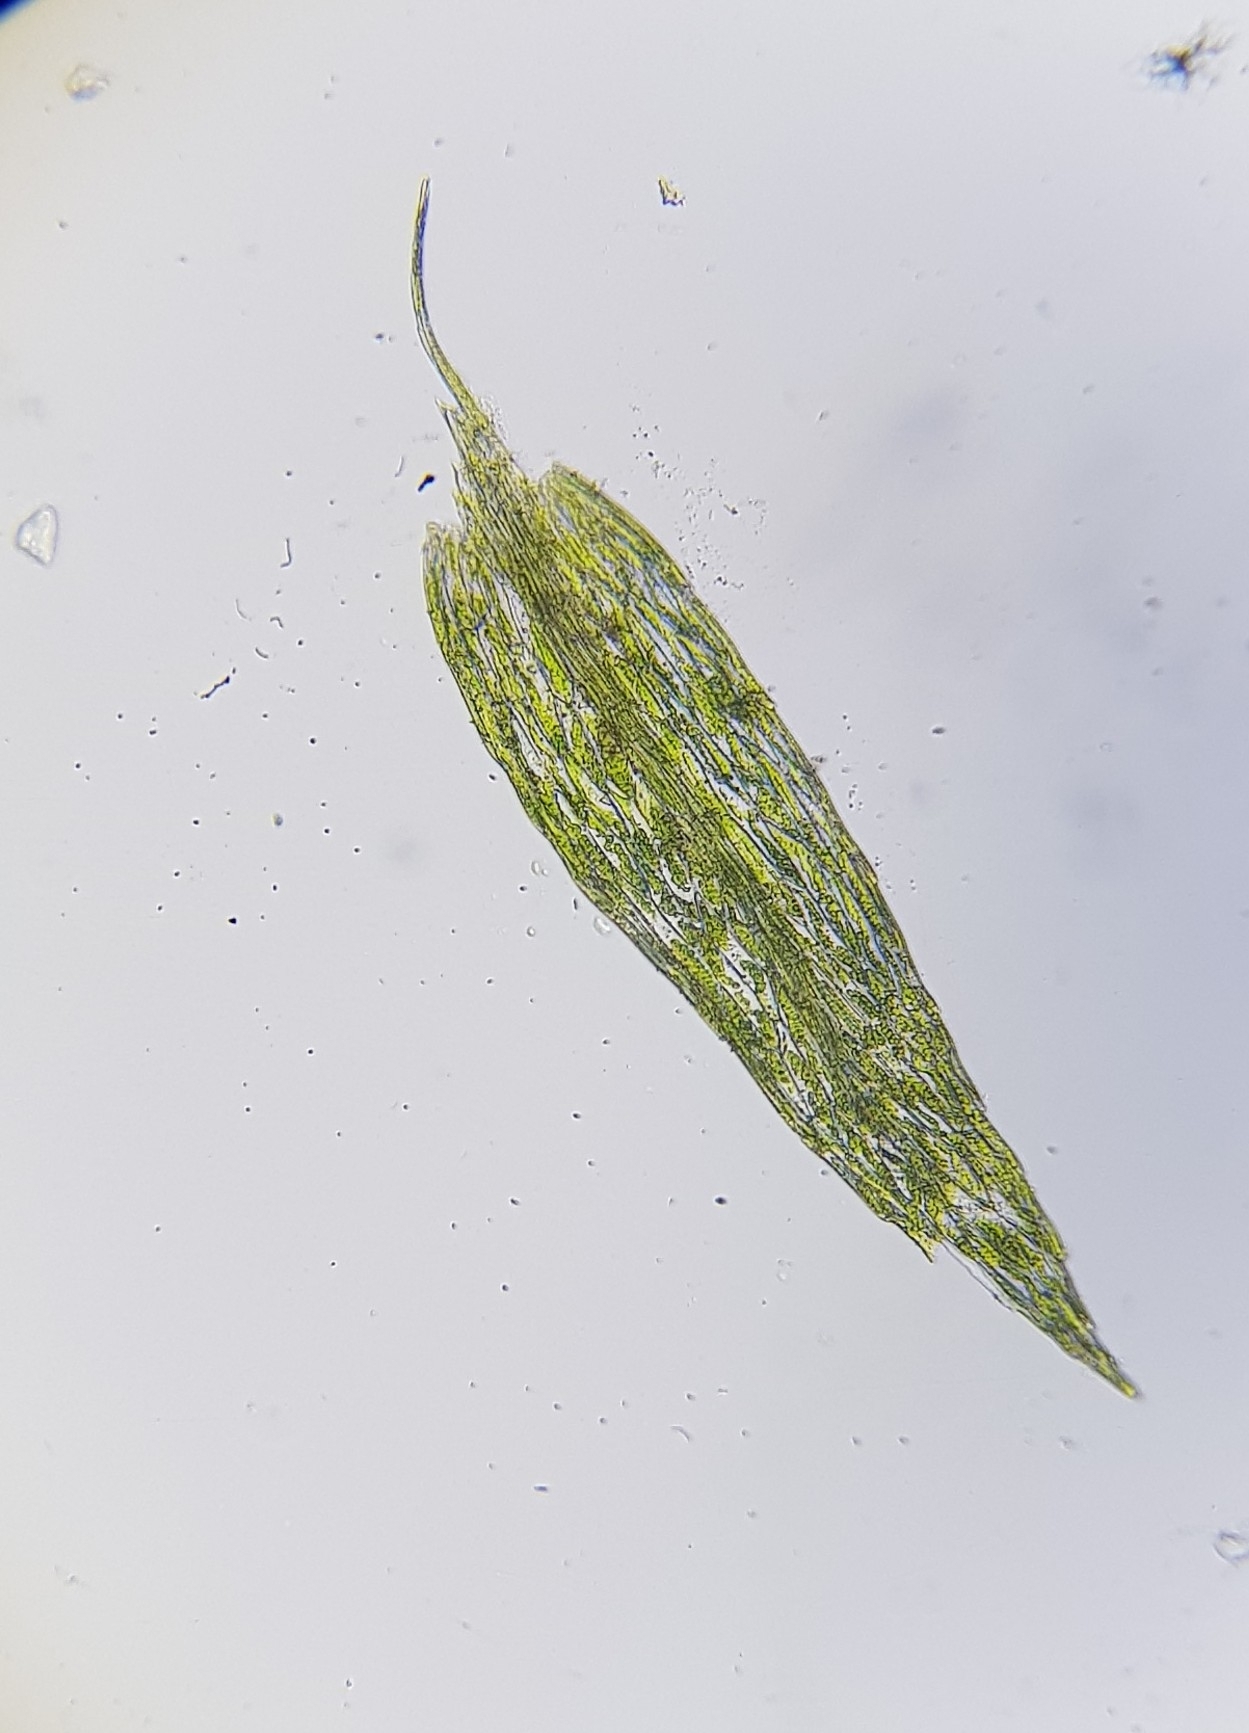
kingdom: Plantae
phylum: Bryophyta
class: Bryopsida
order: Bryales
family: Mniaceae
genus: Pohlia
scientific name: Pohlia wahlenbergii
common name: Wahlenberg's nodding moss
